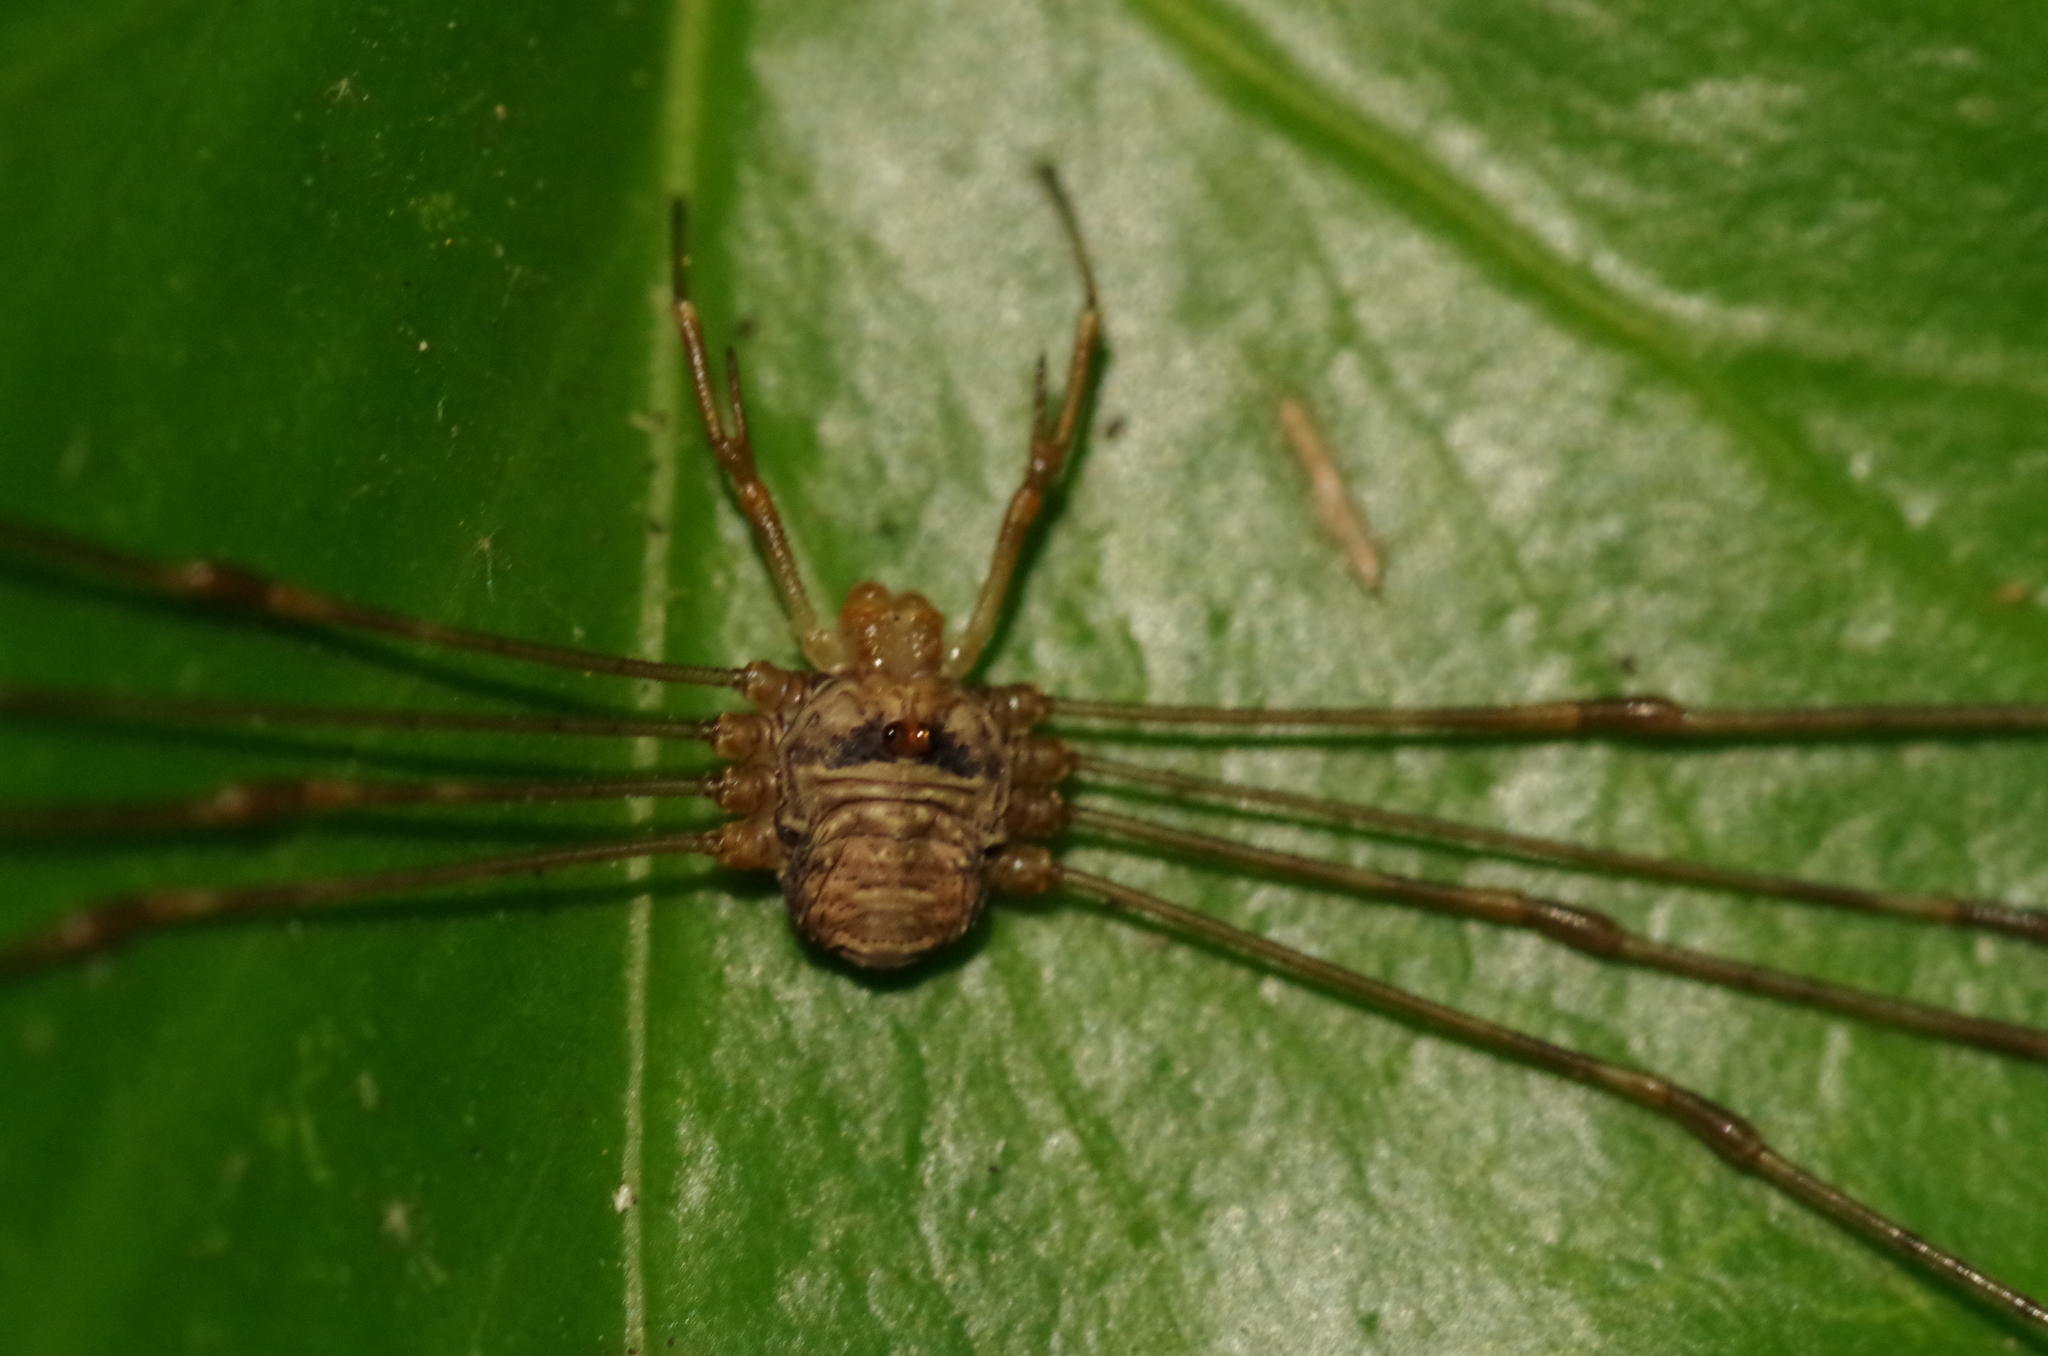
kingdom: Animalia
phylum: Arthropoda
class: Arachnida
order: Opiliones
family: Phalangiidae
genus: Dicranopalpus
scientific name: Dicranopalpus ramosus
